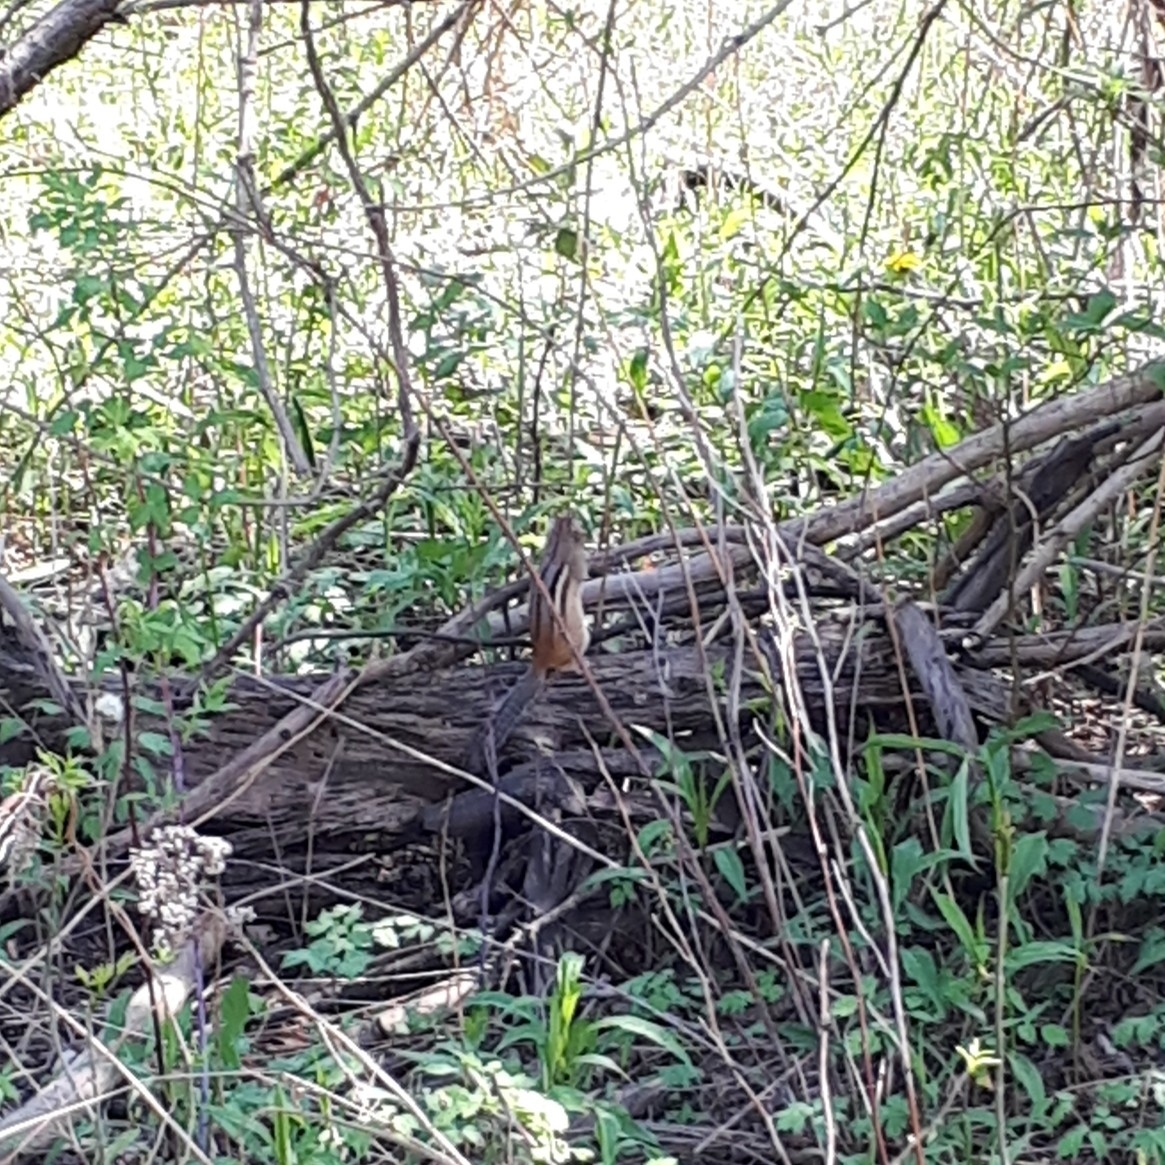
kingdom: Animalia
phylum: Chordata
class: Mammalia
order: Rodentia
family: Sciuridae
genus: Tamias
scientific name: Tamias striatus
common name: Eastern chipmunk
